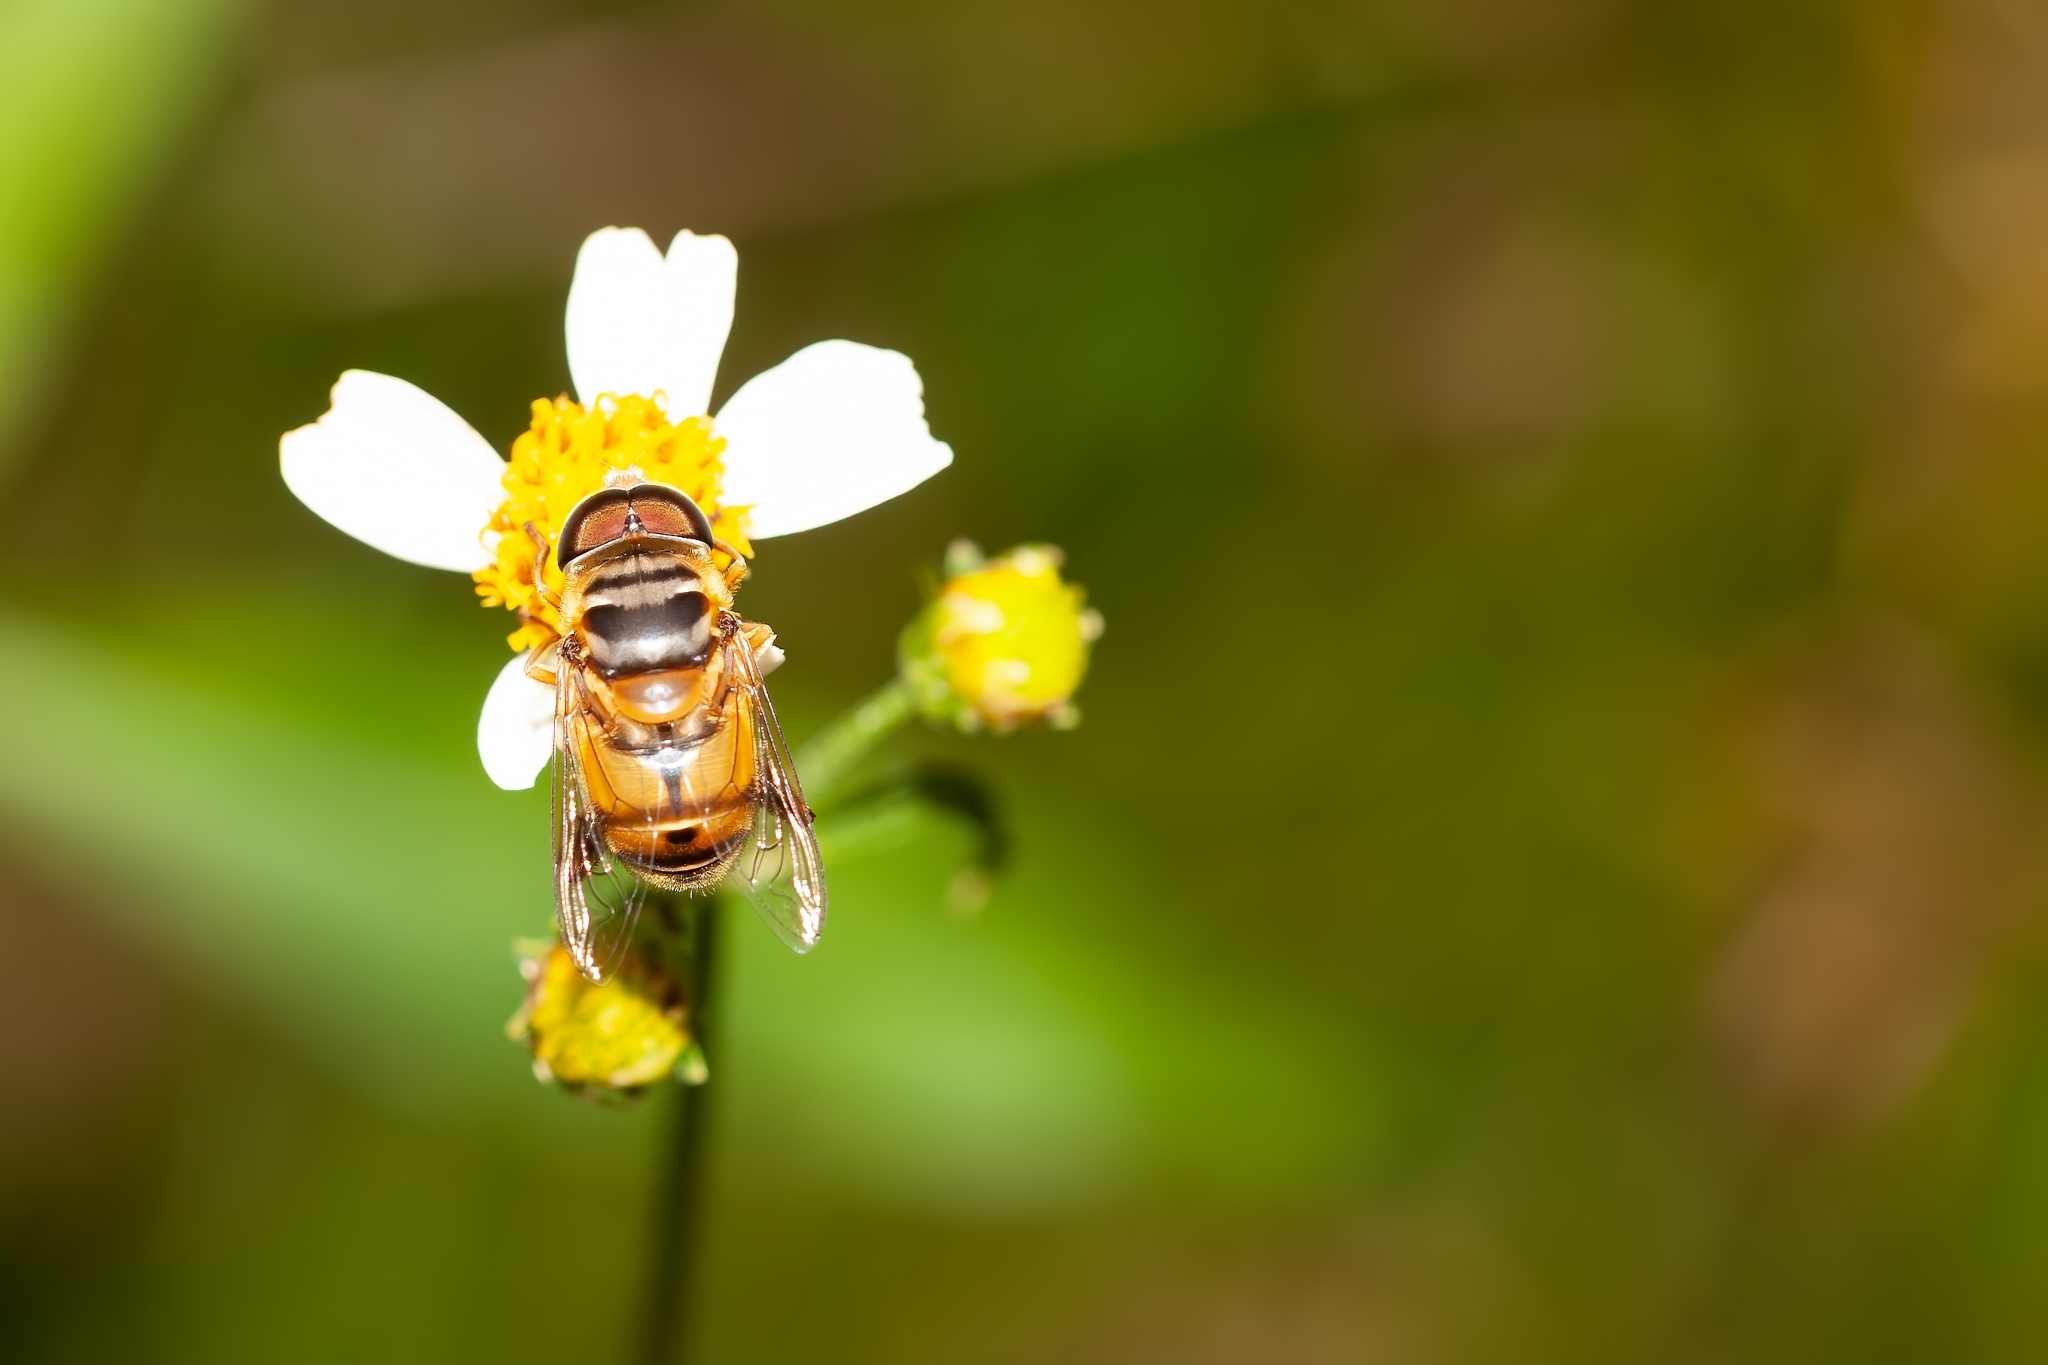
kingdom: Animalia
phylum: Arthropoda
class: Insecta
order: Diptera
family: Syrphidae
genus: Palpada
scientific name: Palpada vinetorum
